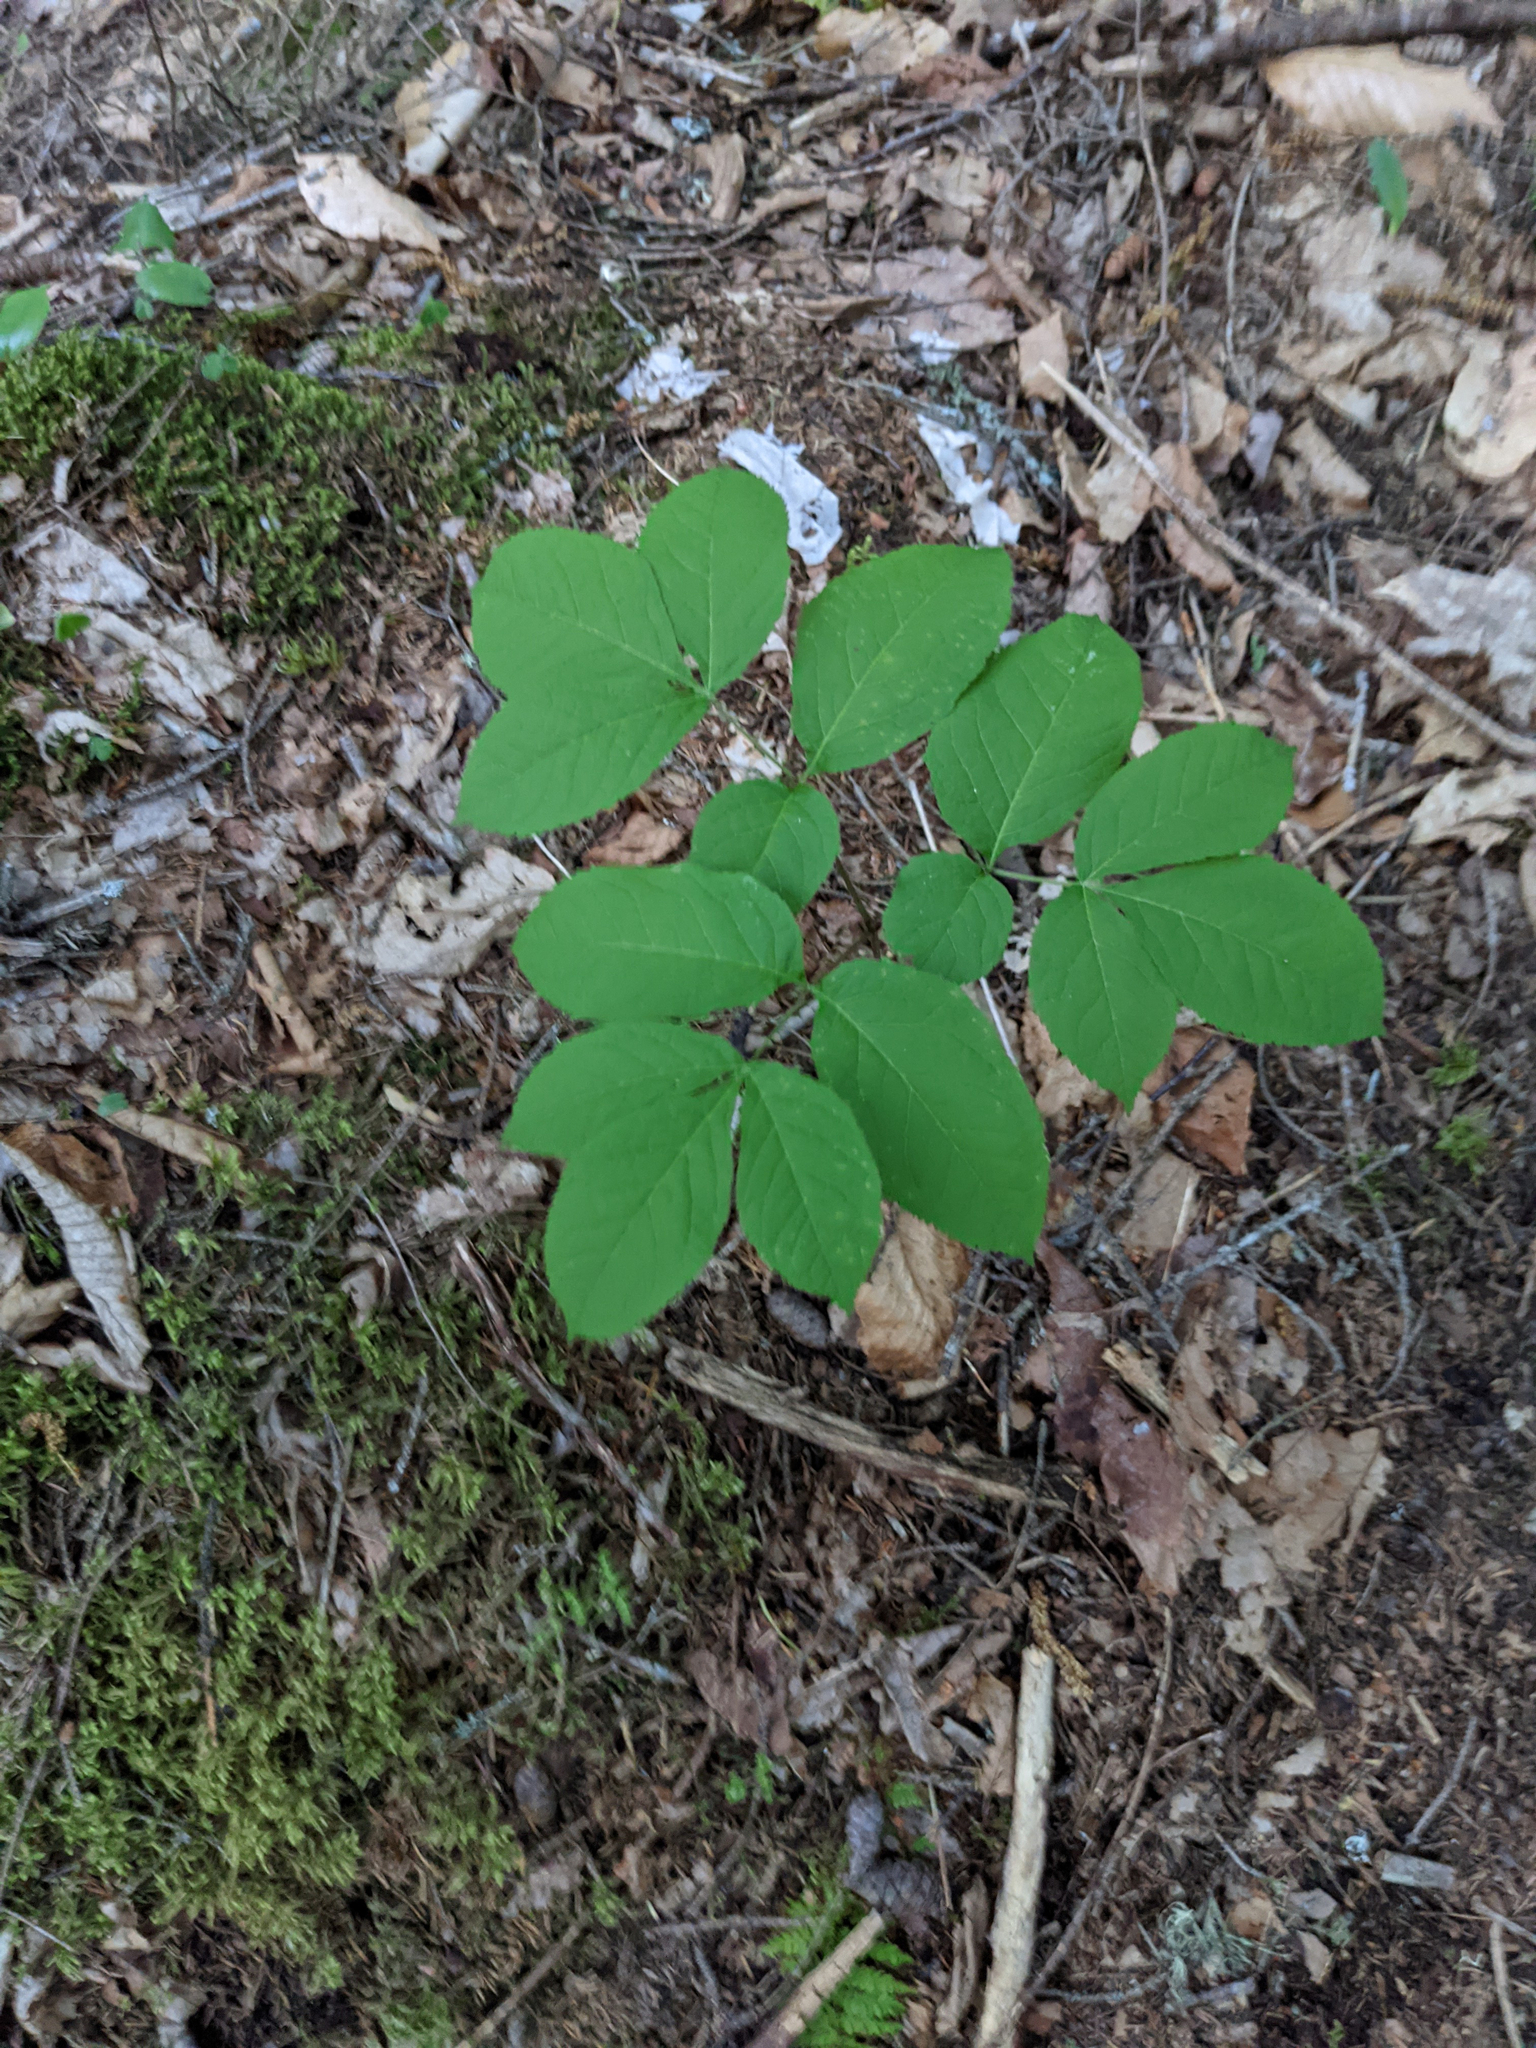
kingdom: Plantae
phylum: Tracheophyta
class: Magnoliopsida
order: Apiales
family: Araliaceae
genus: Aralia
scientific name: Aralia nudicaulis
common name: Wild sarsaparilla
